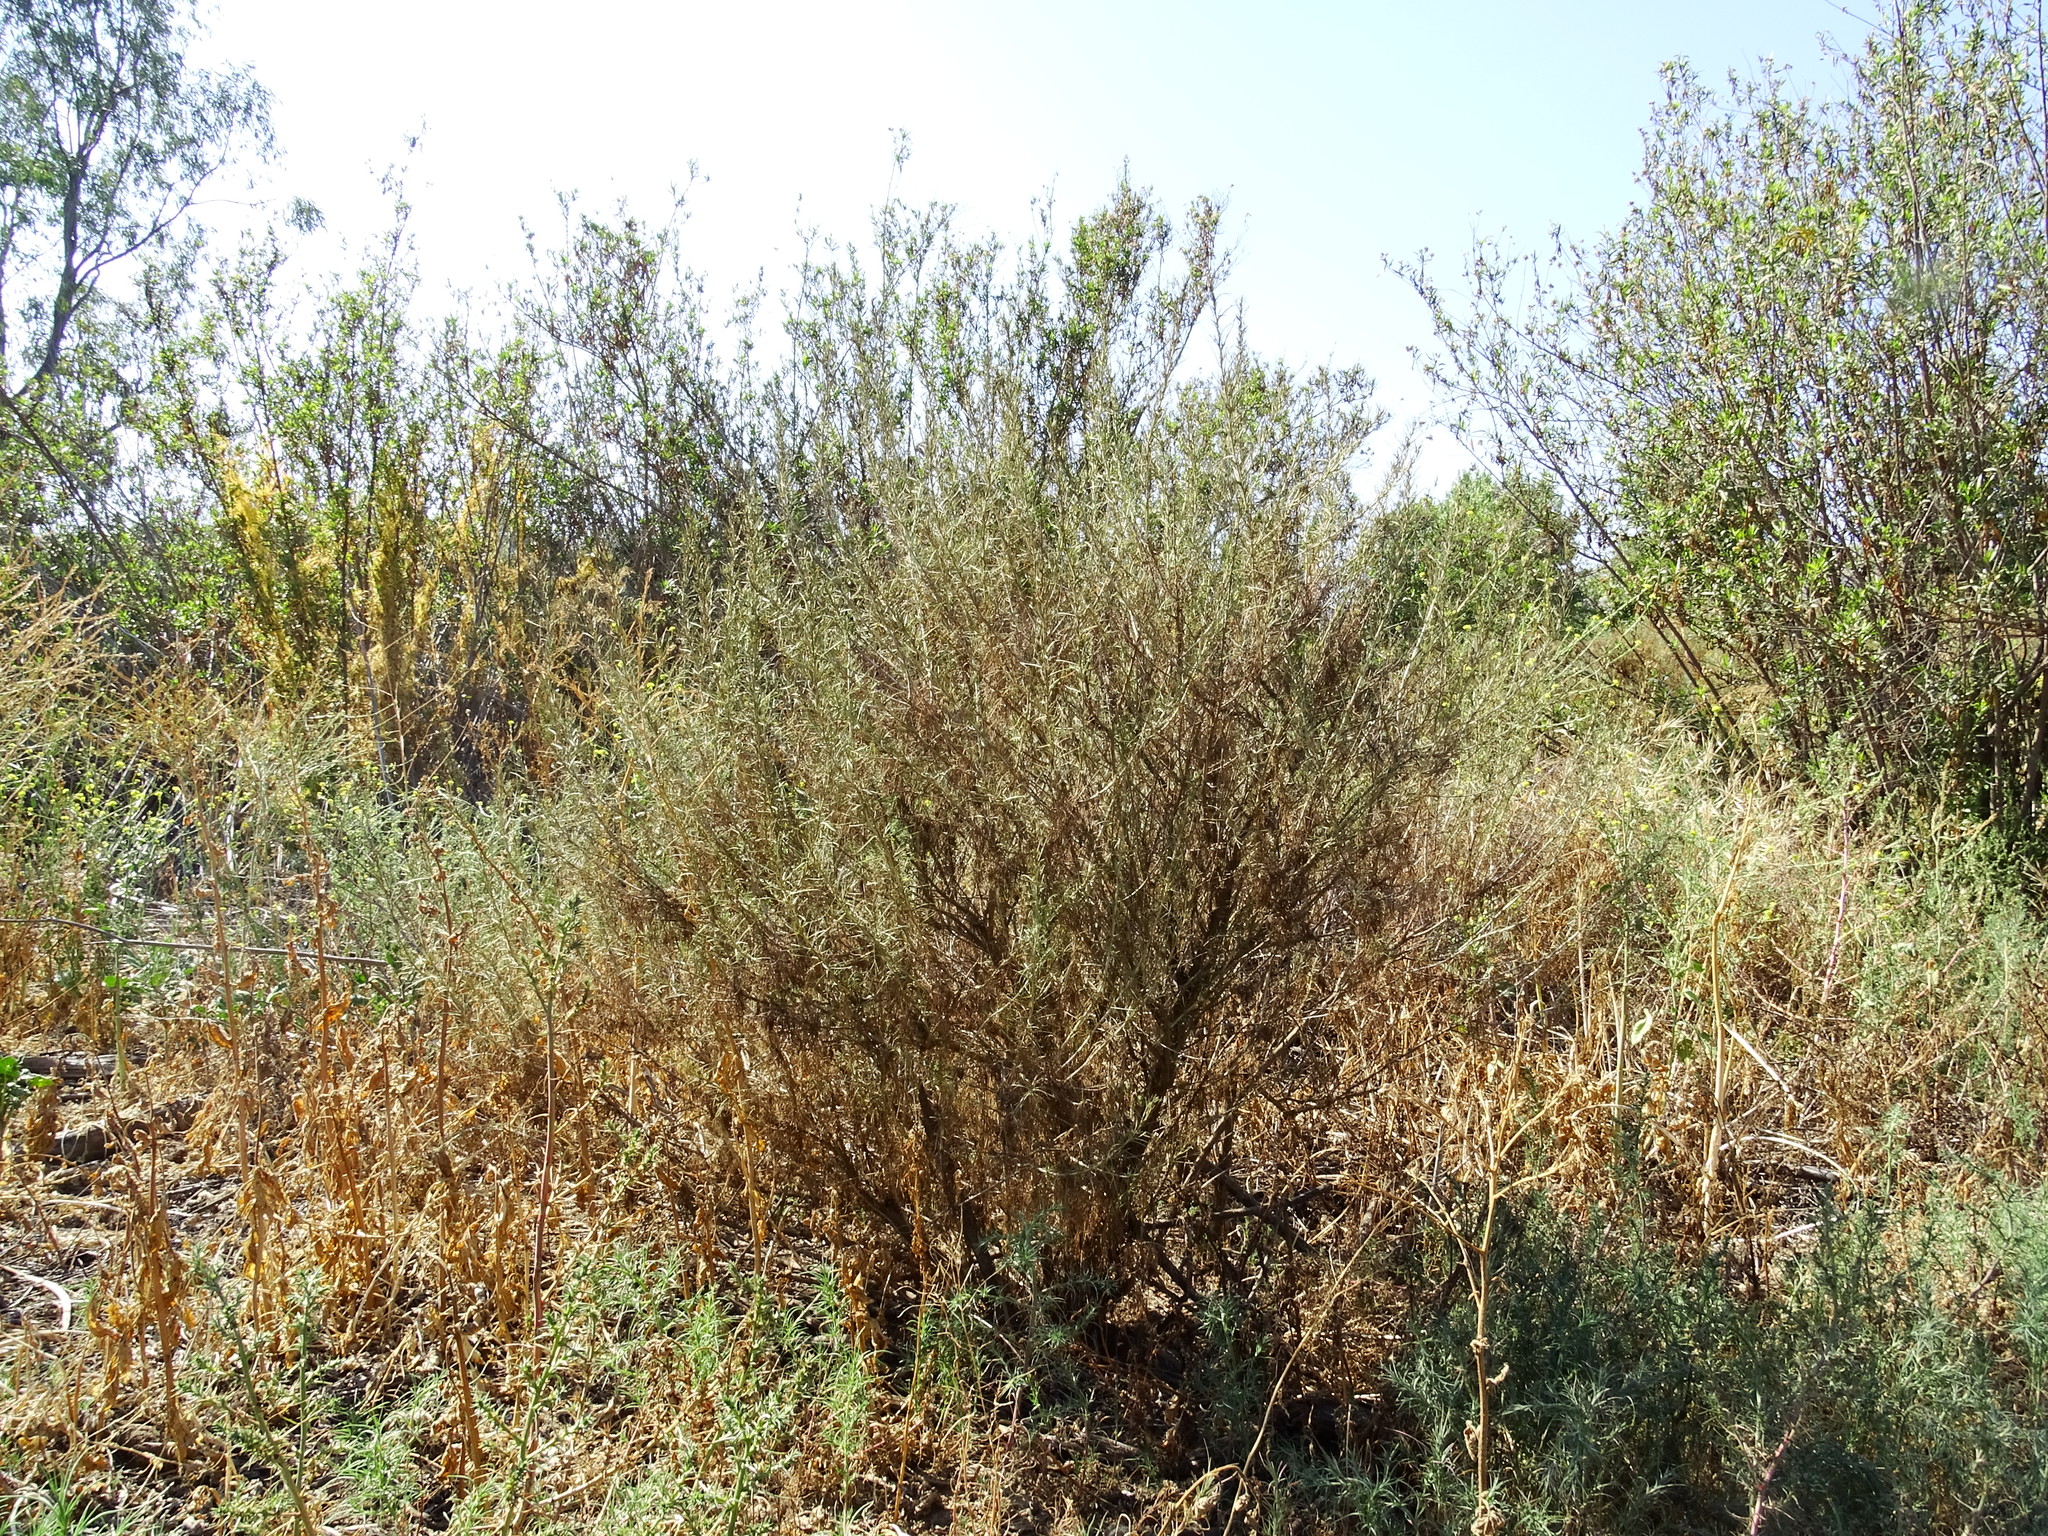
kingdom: Plantae
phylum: Tracheophyta
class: Magnoliopsida
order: Asterales
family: Asteraceae
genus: Artemisia
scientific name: Artemisia californica
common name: California sagebrush
